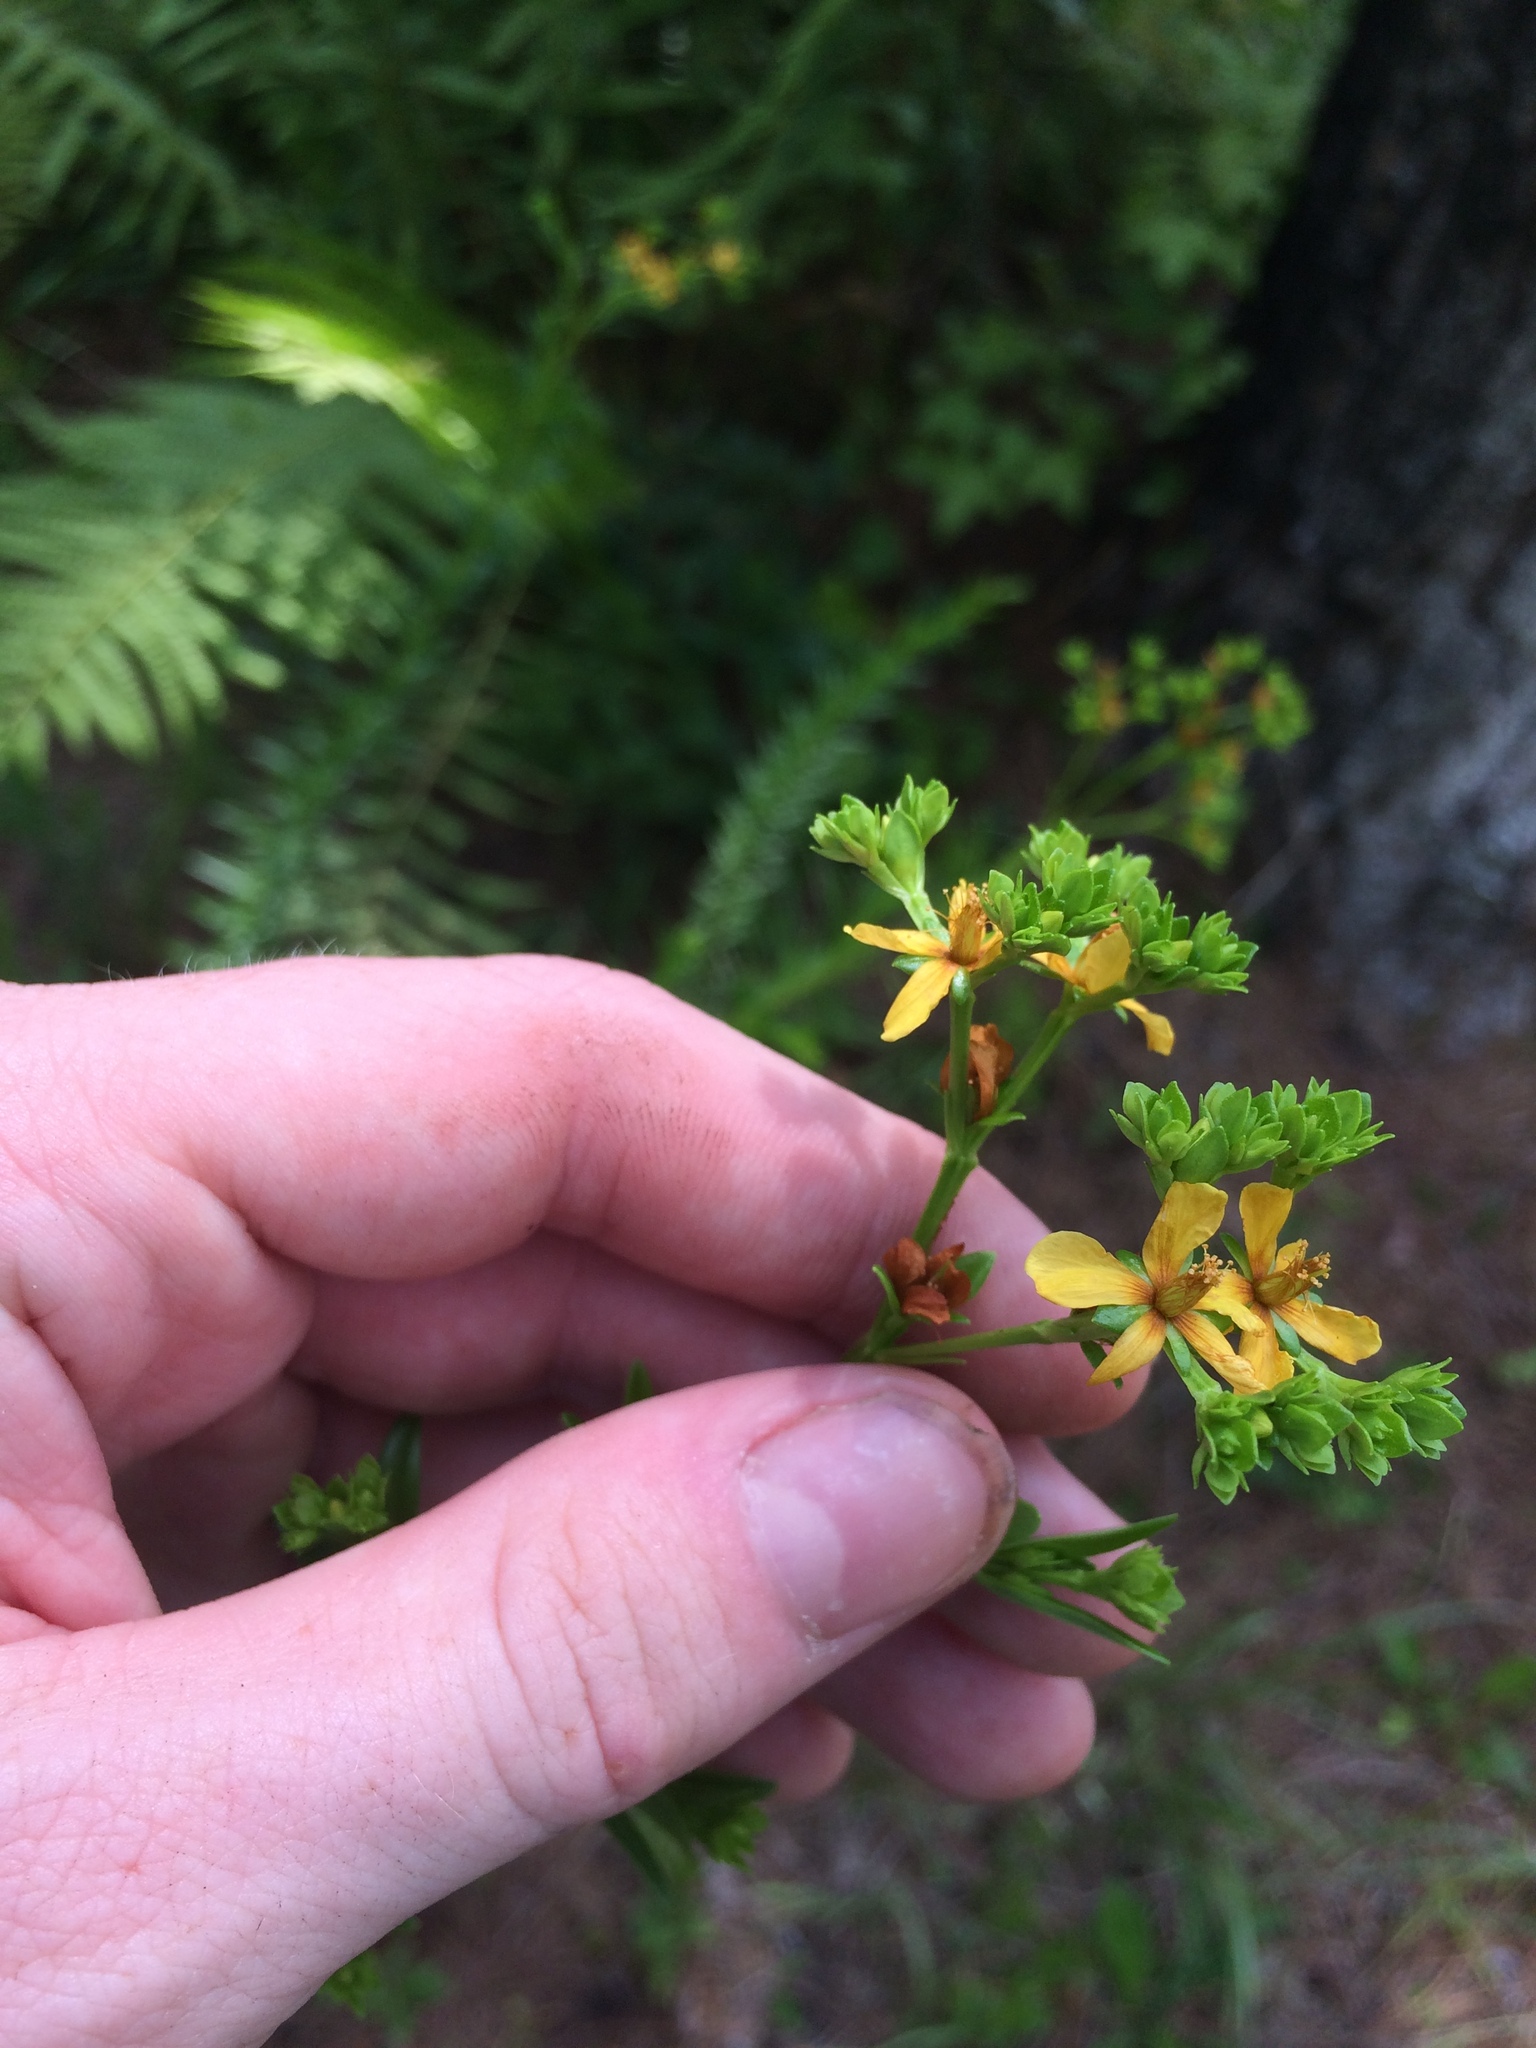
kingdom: Plantae
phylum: Tracheophyta
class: Magnoliopsida
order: Malpighiales
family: Hypericaceae
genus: Hypericum
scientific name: Hypericum cistifolium
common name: Round-pod st. john's-wort
